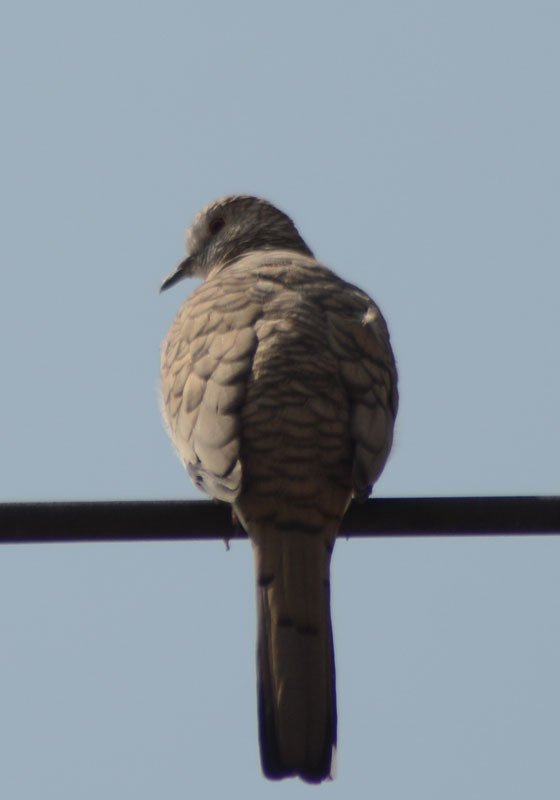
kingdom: Animalia
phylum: Chordata
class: Aves
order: Columbiformes
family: Columbidae
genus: Columbina
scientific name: Columbina inca
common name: Inca dove
